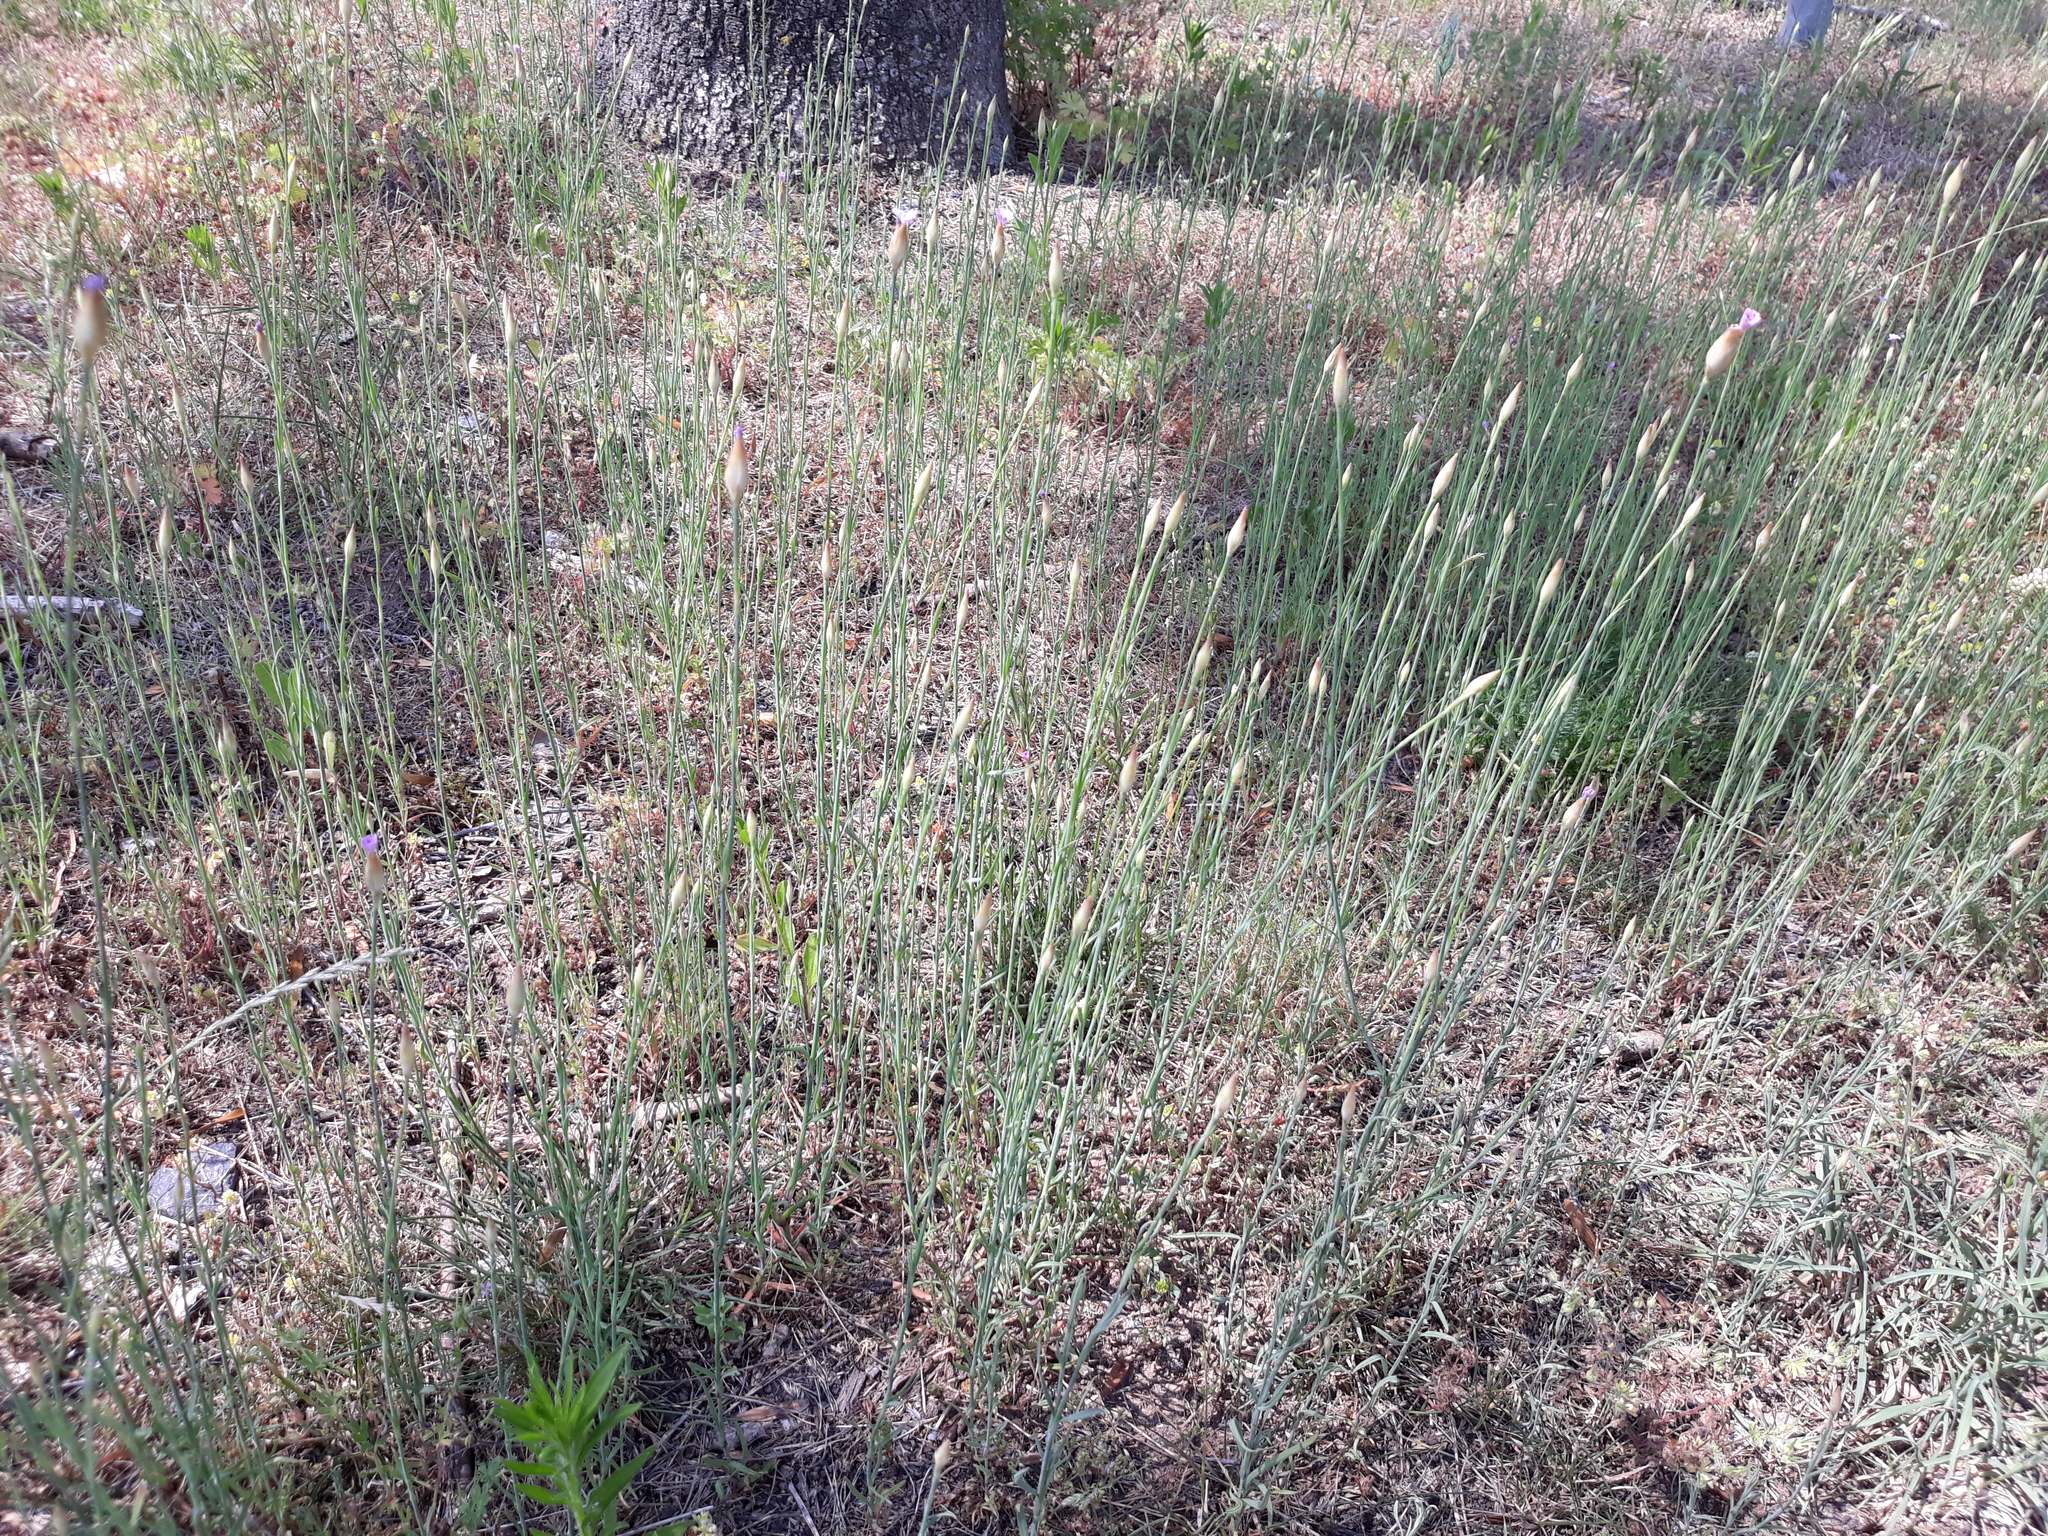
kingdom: Plantae
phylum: Tracheophyta
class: Magnoliopsida
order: Caryophyllales
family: Caryophyllaceae
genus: Petrorhagia
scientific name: Petrorhagia prolifera
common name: Proliferous pink
